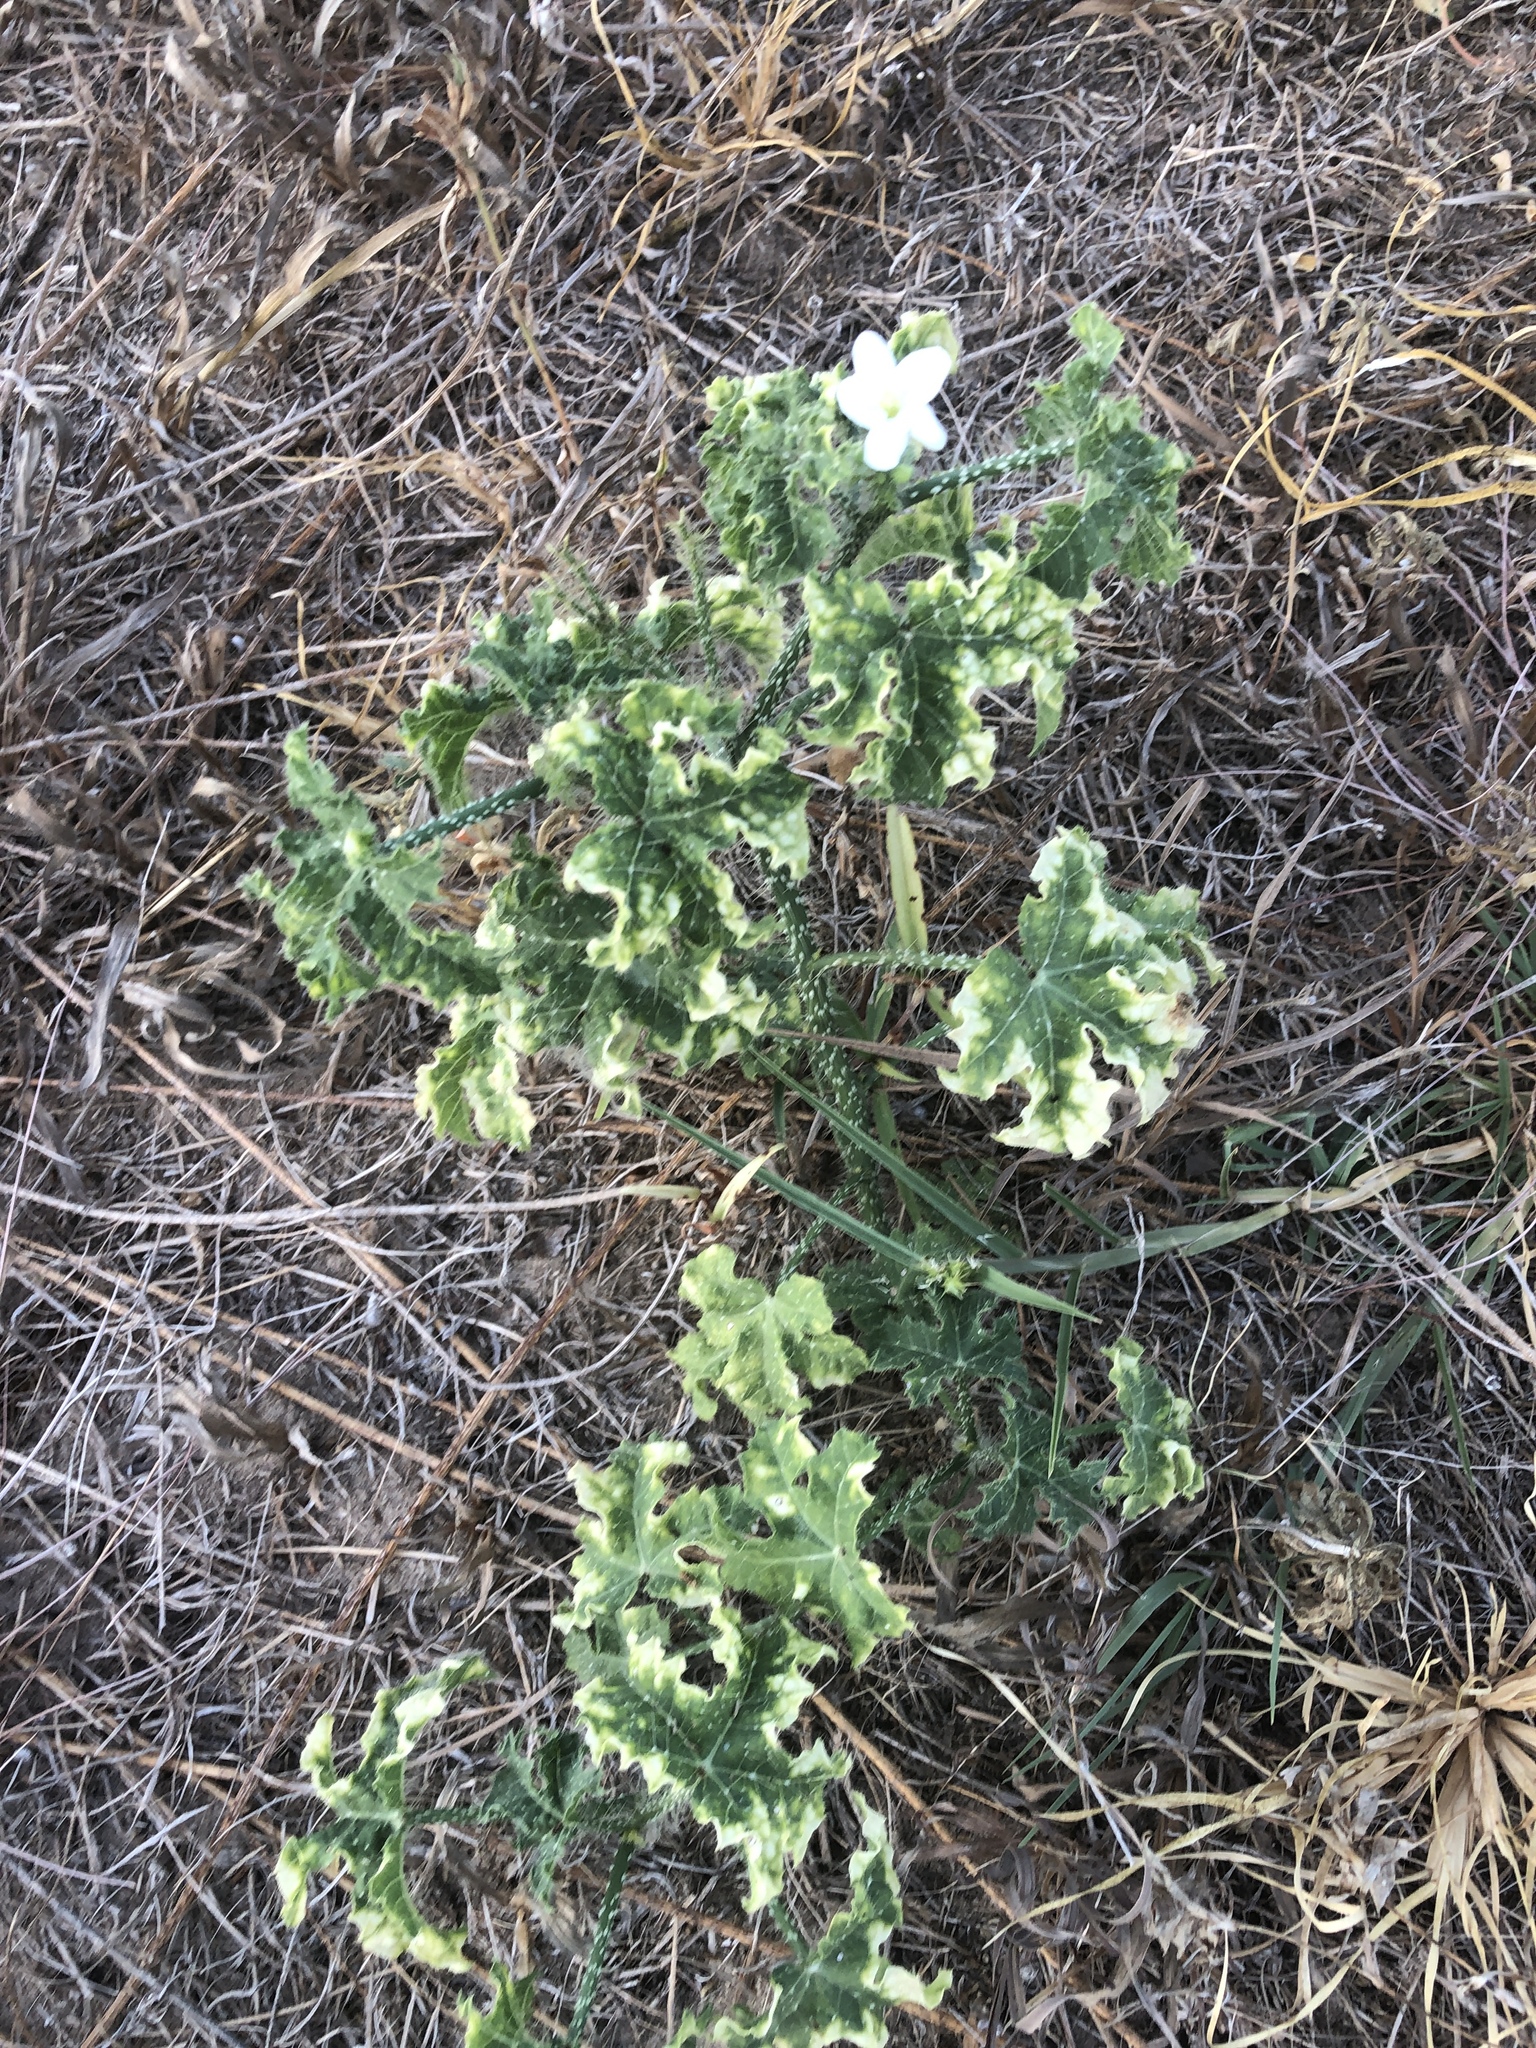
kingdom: Plantae
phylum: Tracheophyta
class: Magnoliopsida
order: Malpighiales
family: Euphorbiaceae
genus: Cnidoscolus
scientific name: Cnidoscolus texanus
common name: Texas bull-nettle
